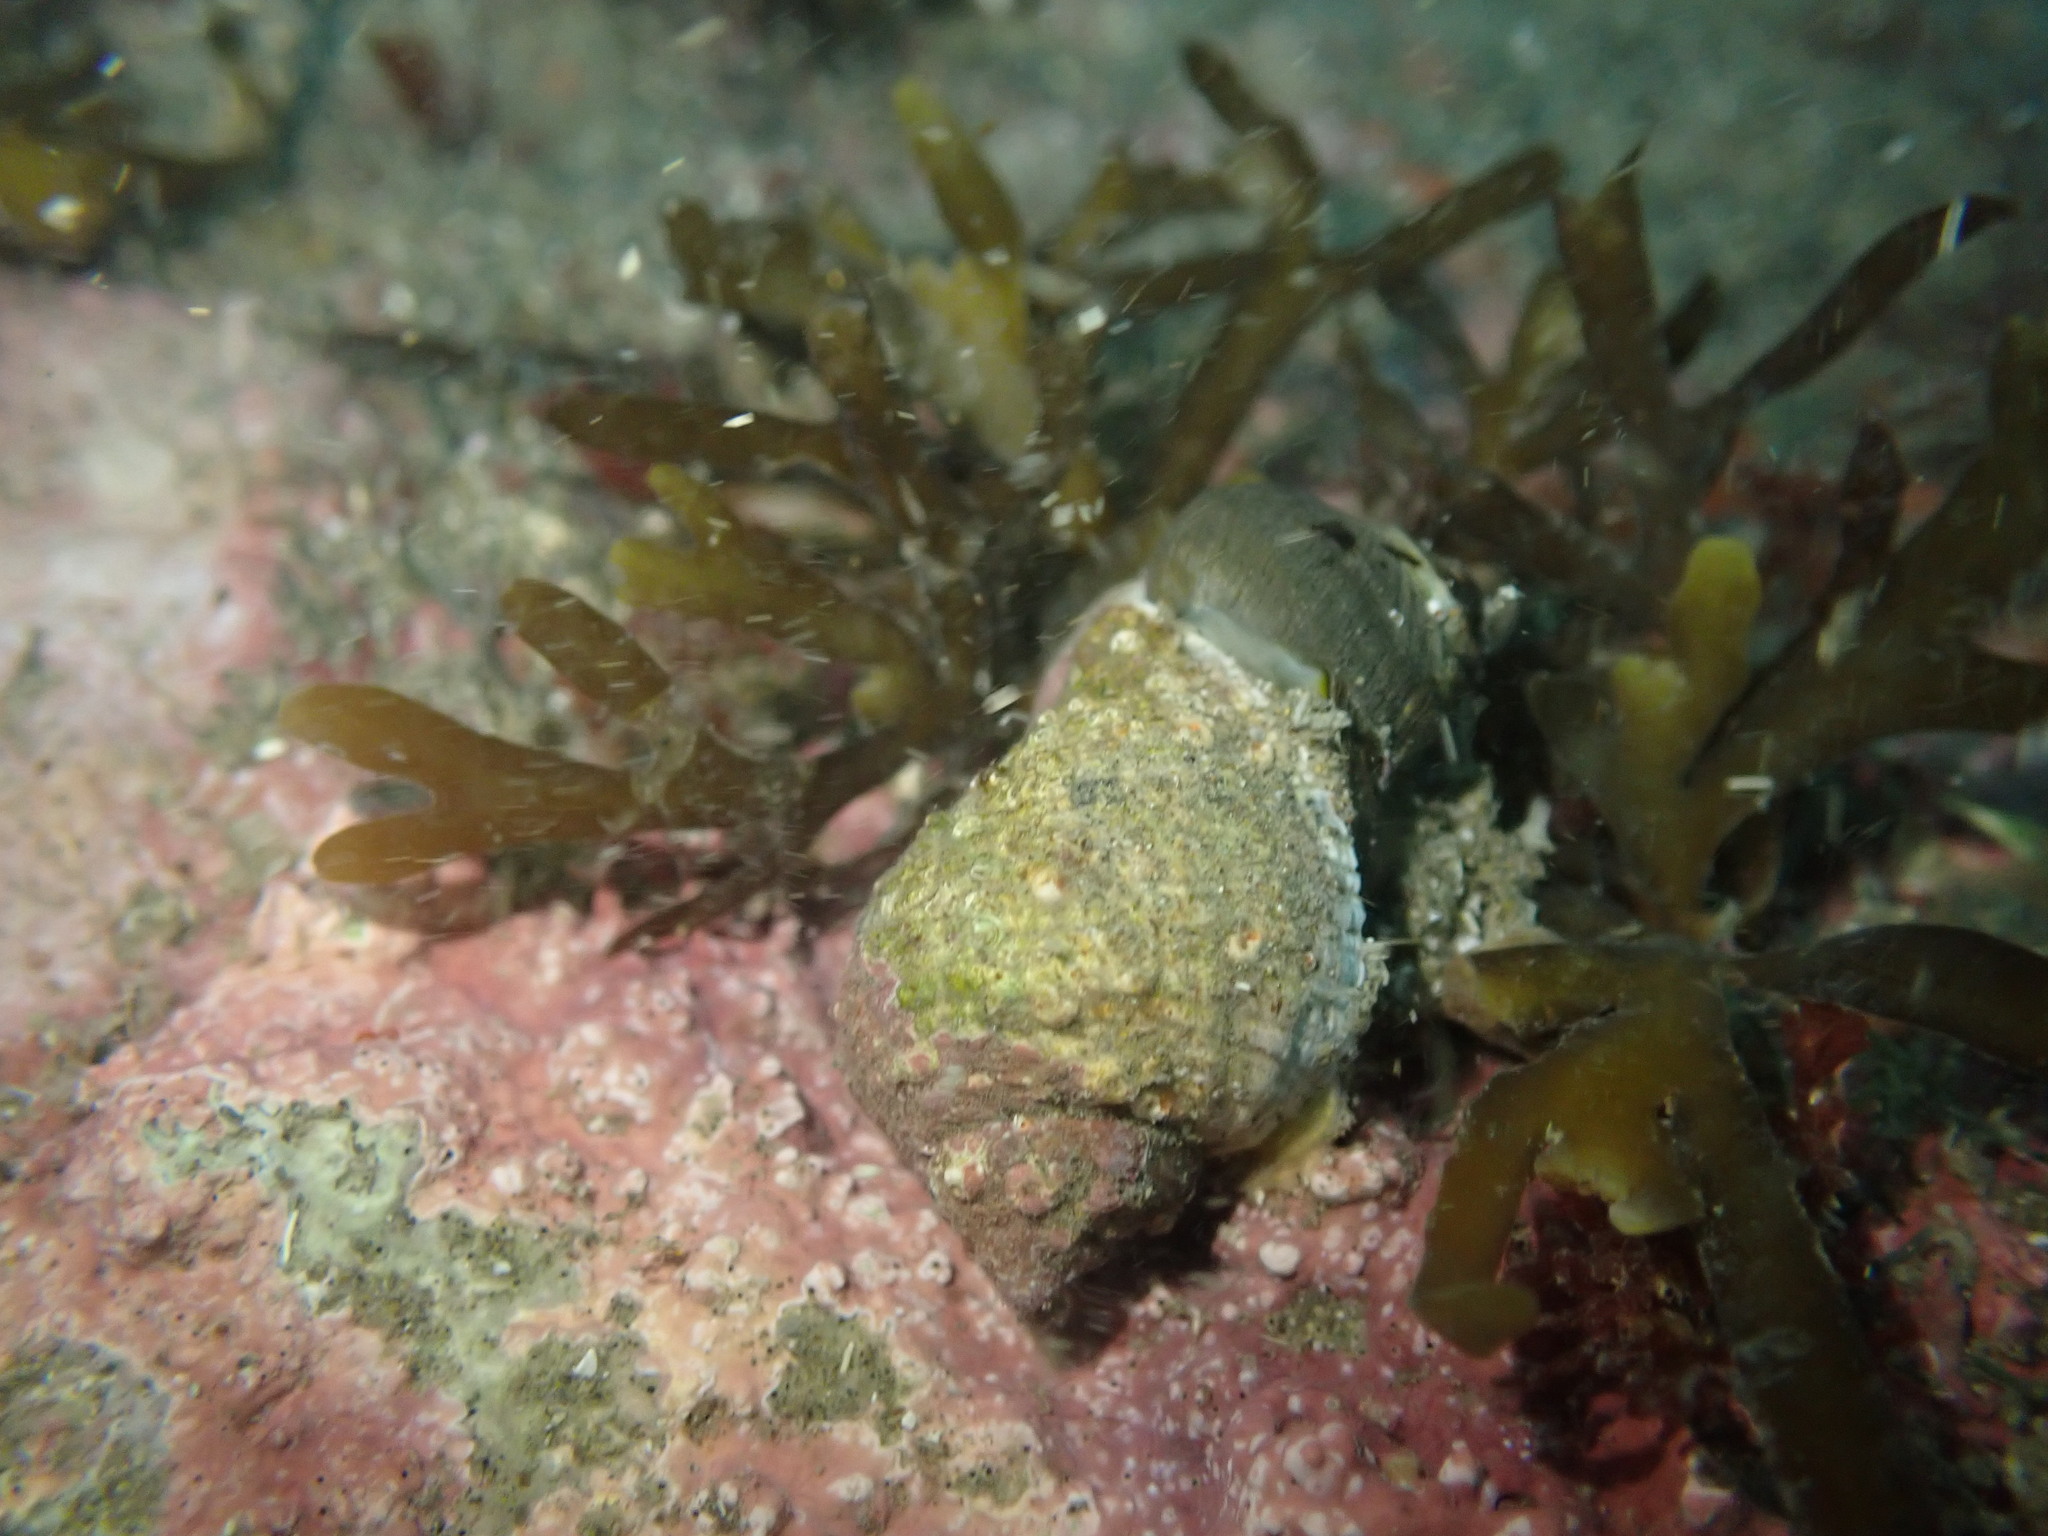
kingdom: Animalia
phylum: Mollusca
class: Gastropoda
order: Neogastropoda
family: Muricidae
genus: Haustrum
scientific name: Haustrum haustorium
